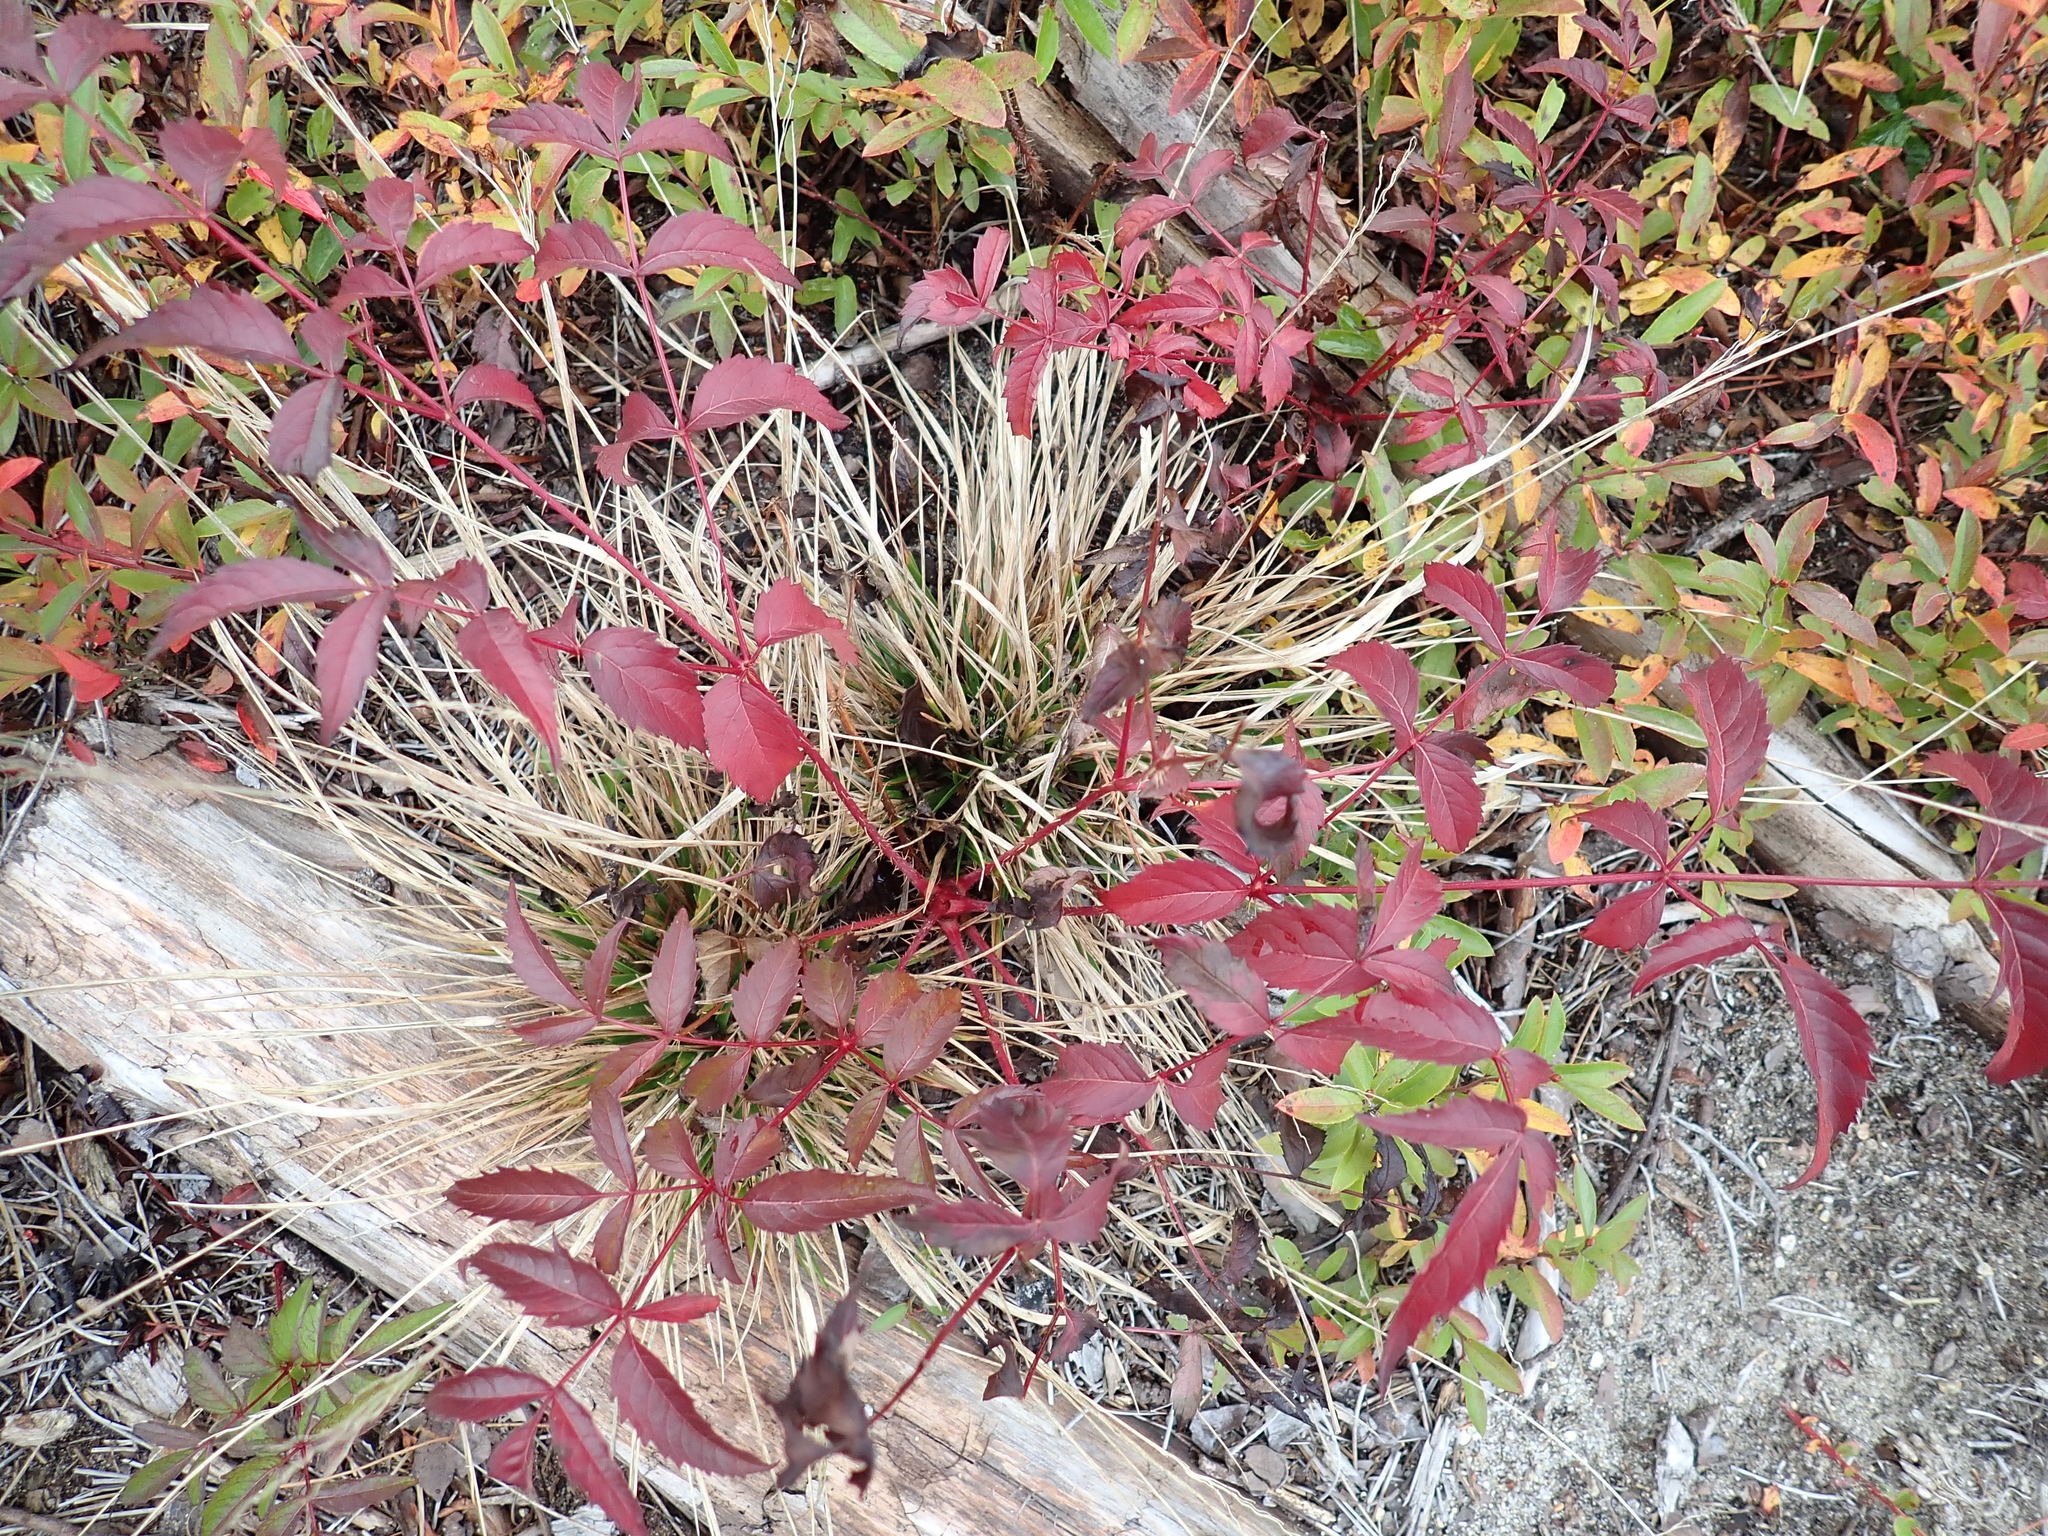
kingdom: Plantae
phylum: Tracheophyta
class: Magnoliopsida
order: Apiales
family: Araliaceae
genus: Aralia
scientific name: Aralia hispida
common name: Bristly sarsaparilla
